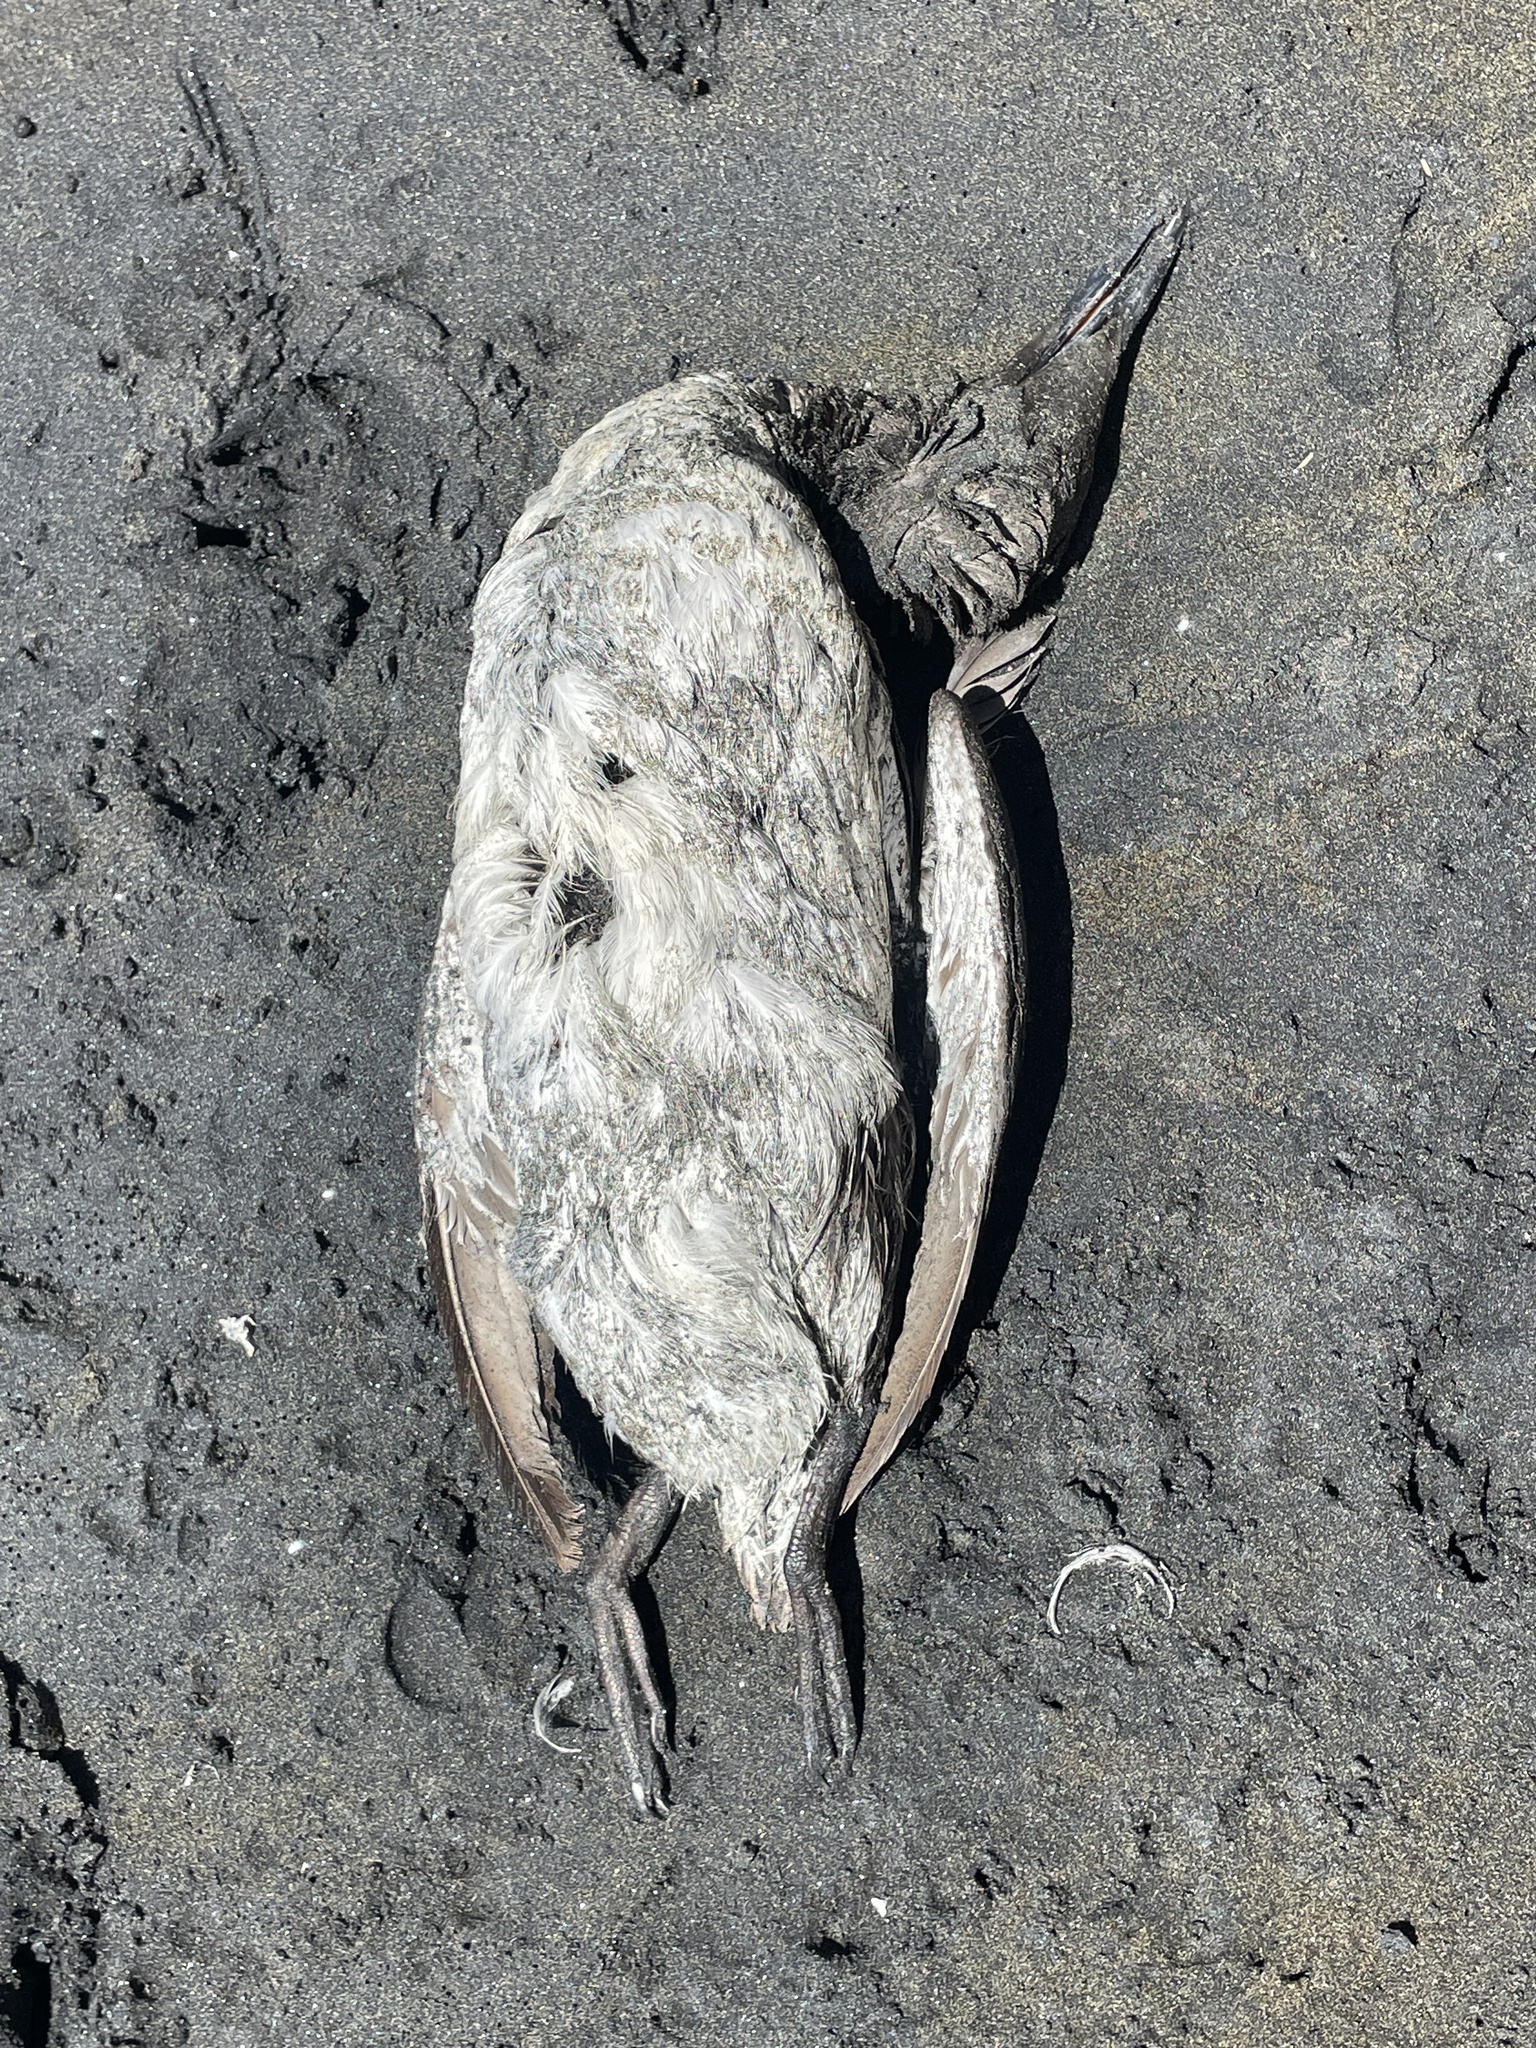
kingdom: Animalia
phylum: Chordata
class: Aves
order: Charadriiformes
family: Alcidae
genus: Uria
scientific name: Uria aalge
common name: Common murre
